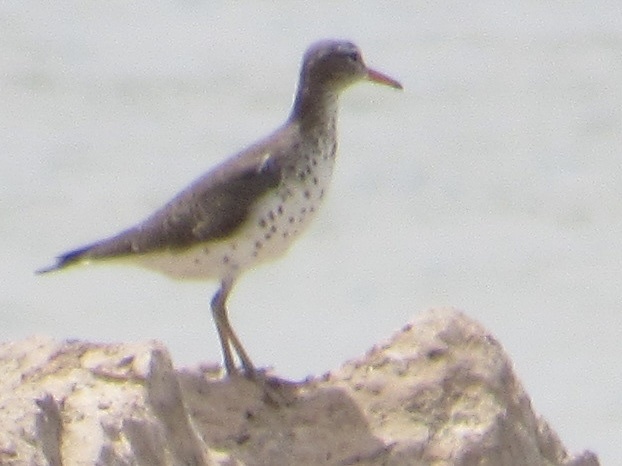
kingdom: Animalia
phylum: Chordata
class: Aves
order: Charadriiformes
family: Scolopacidae
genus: Actitis
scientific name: Actitis macularius
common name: Spotted sandpiper
